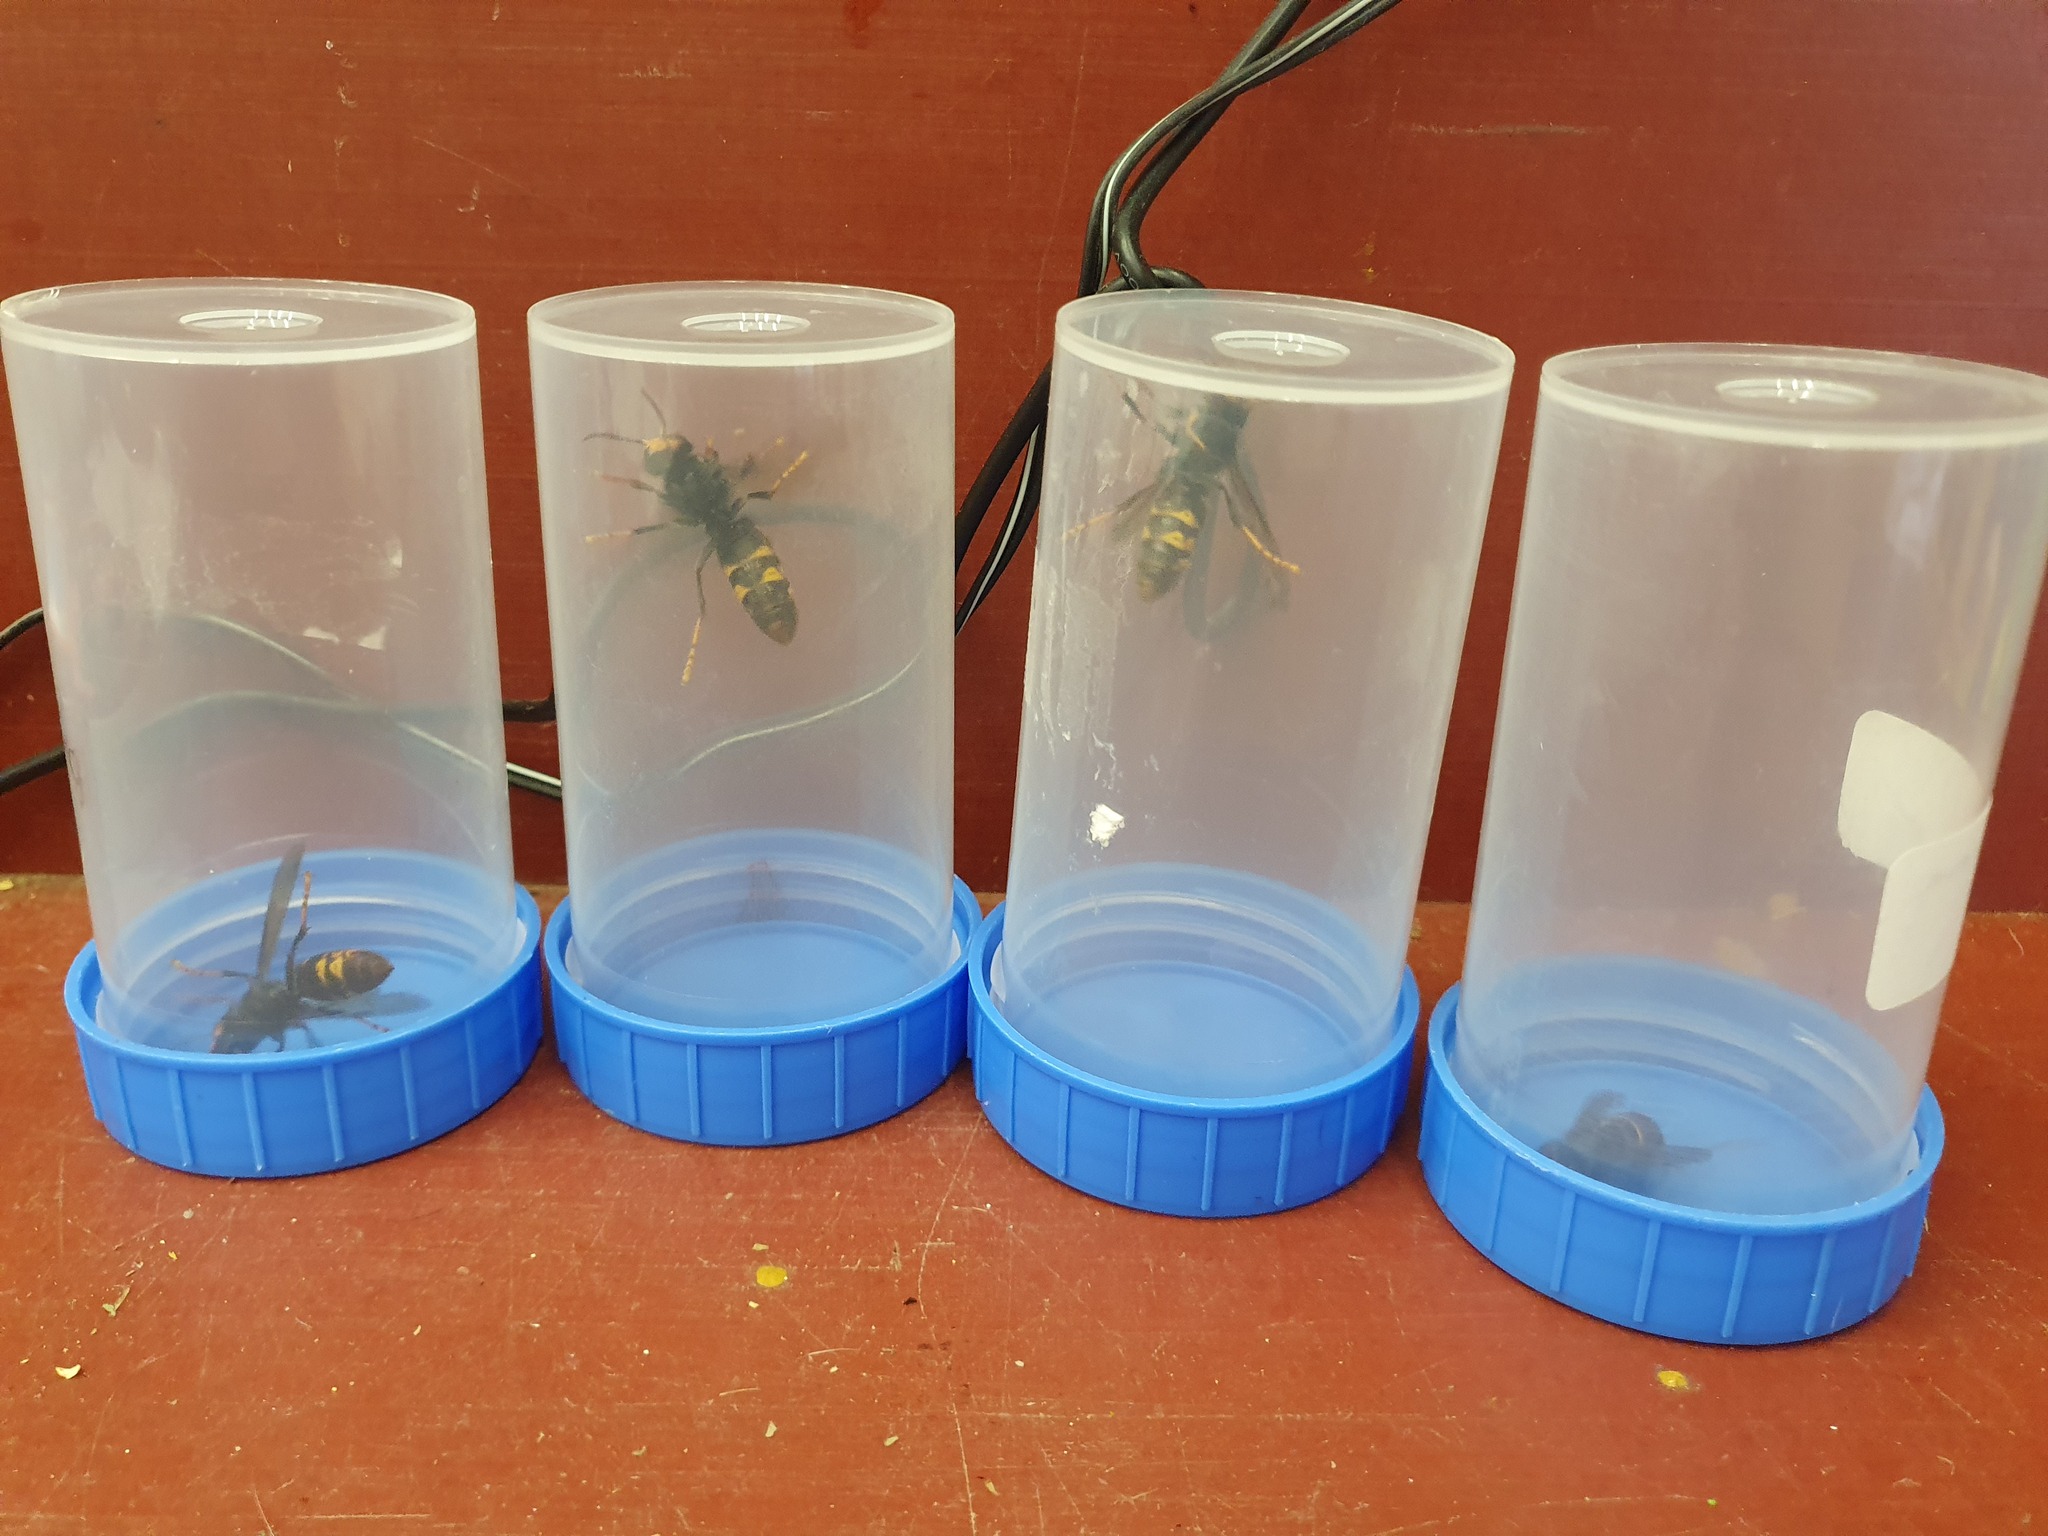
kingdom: Animalia
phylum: Arthropoda
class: Insecta
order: Hymenoptera
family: Vespidae
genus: Vespa
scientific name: Vespa velutina
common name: Asian hornet
